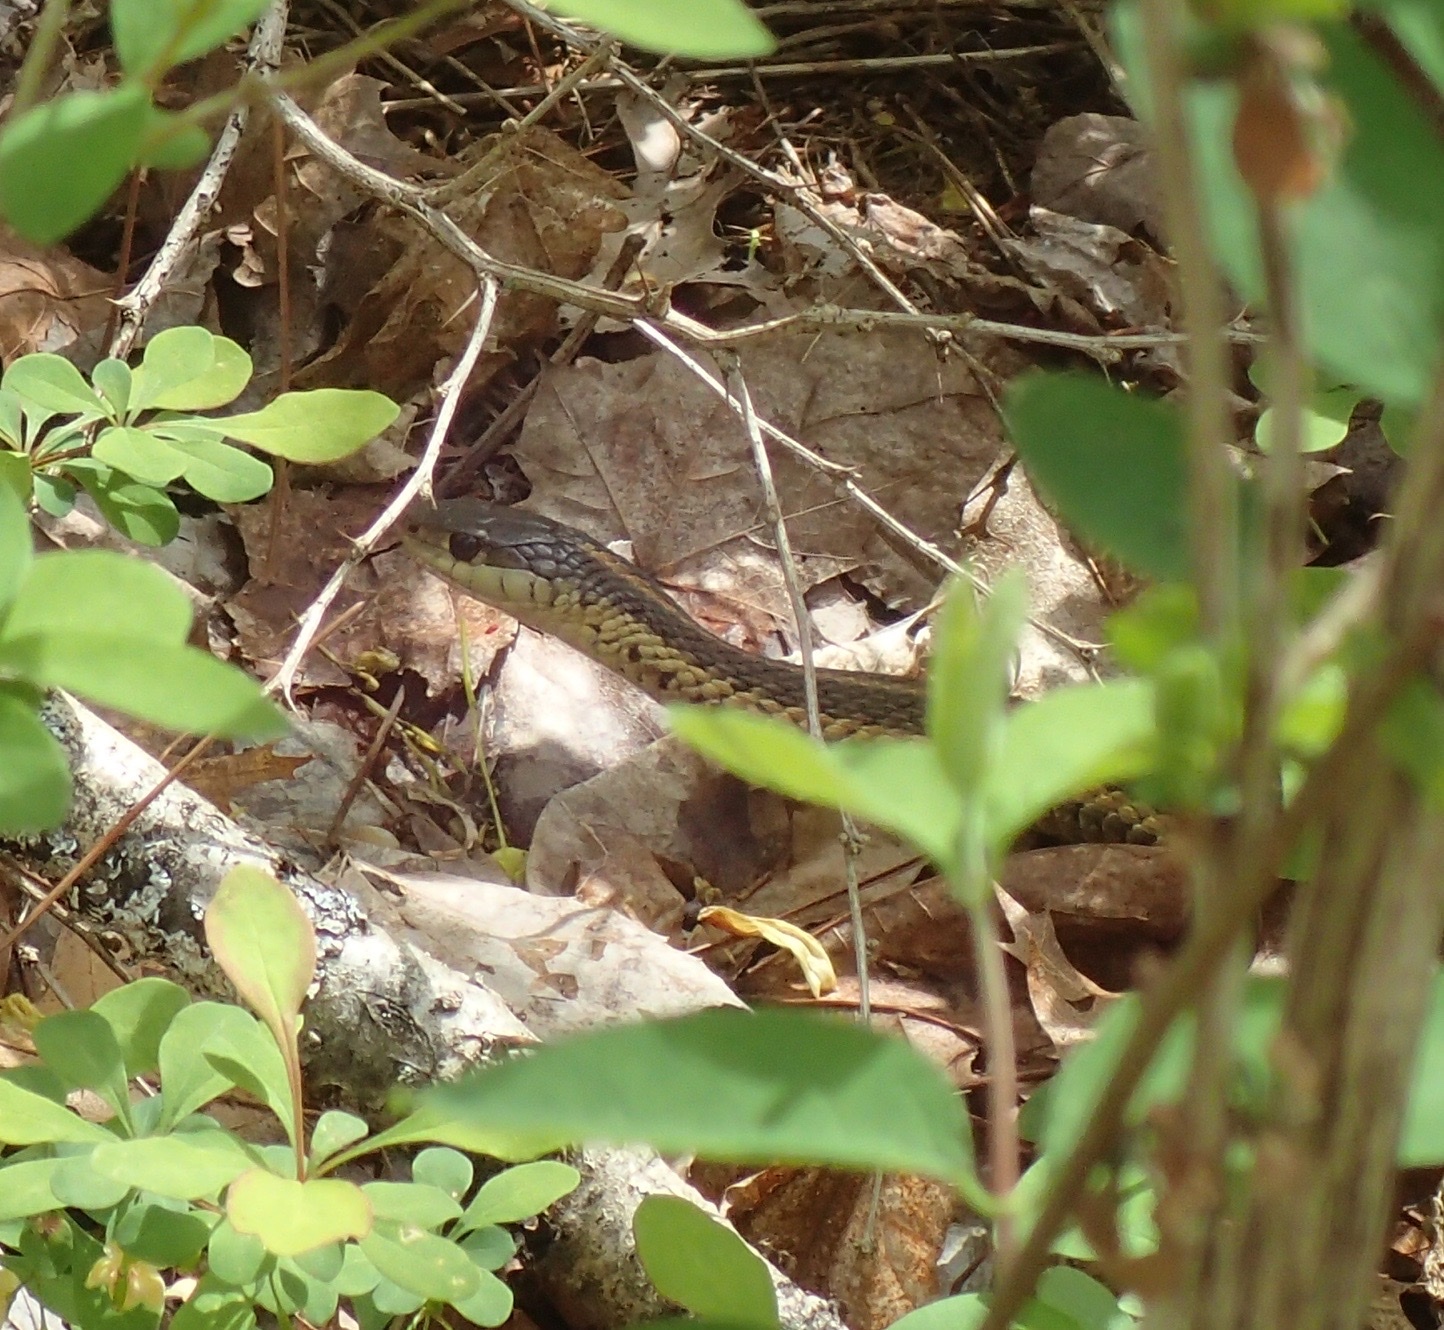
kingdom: Animalia
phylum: Chordata
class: Squamata
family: Colubridae
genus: Thamnophis
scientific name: Thamnophis sirtalis
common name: Common garter snake
